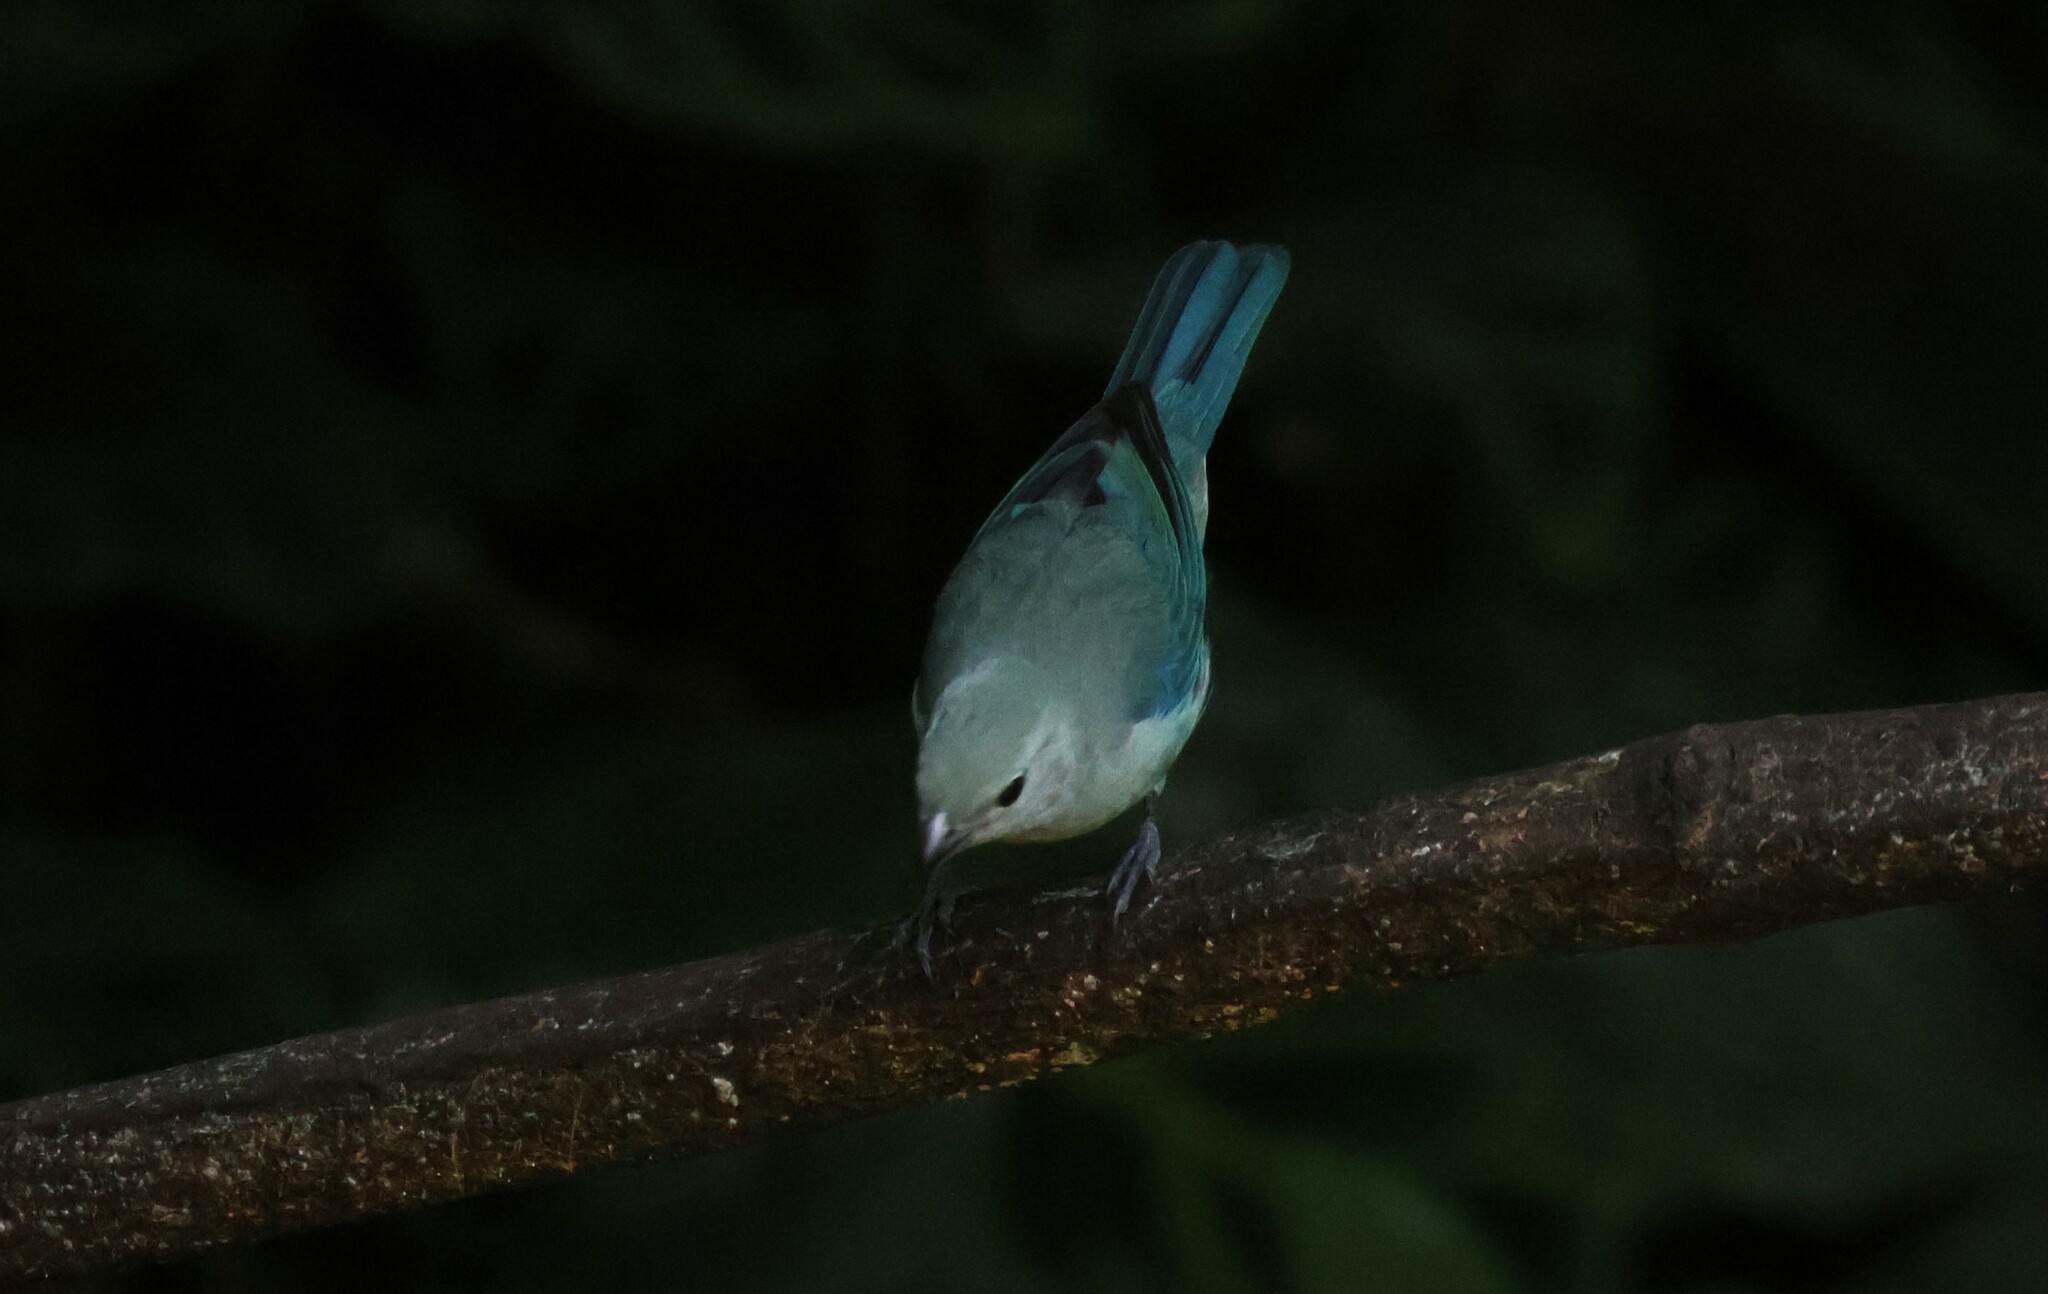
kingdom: Animalia
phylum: Chordata
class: Aves
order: Passeriformes
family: Thraupidae
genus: Thraupis
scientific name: Thraupis episcopus
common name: Blue-grey tanager
